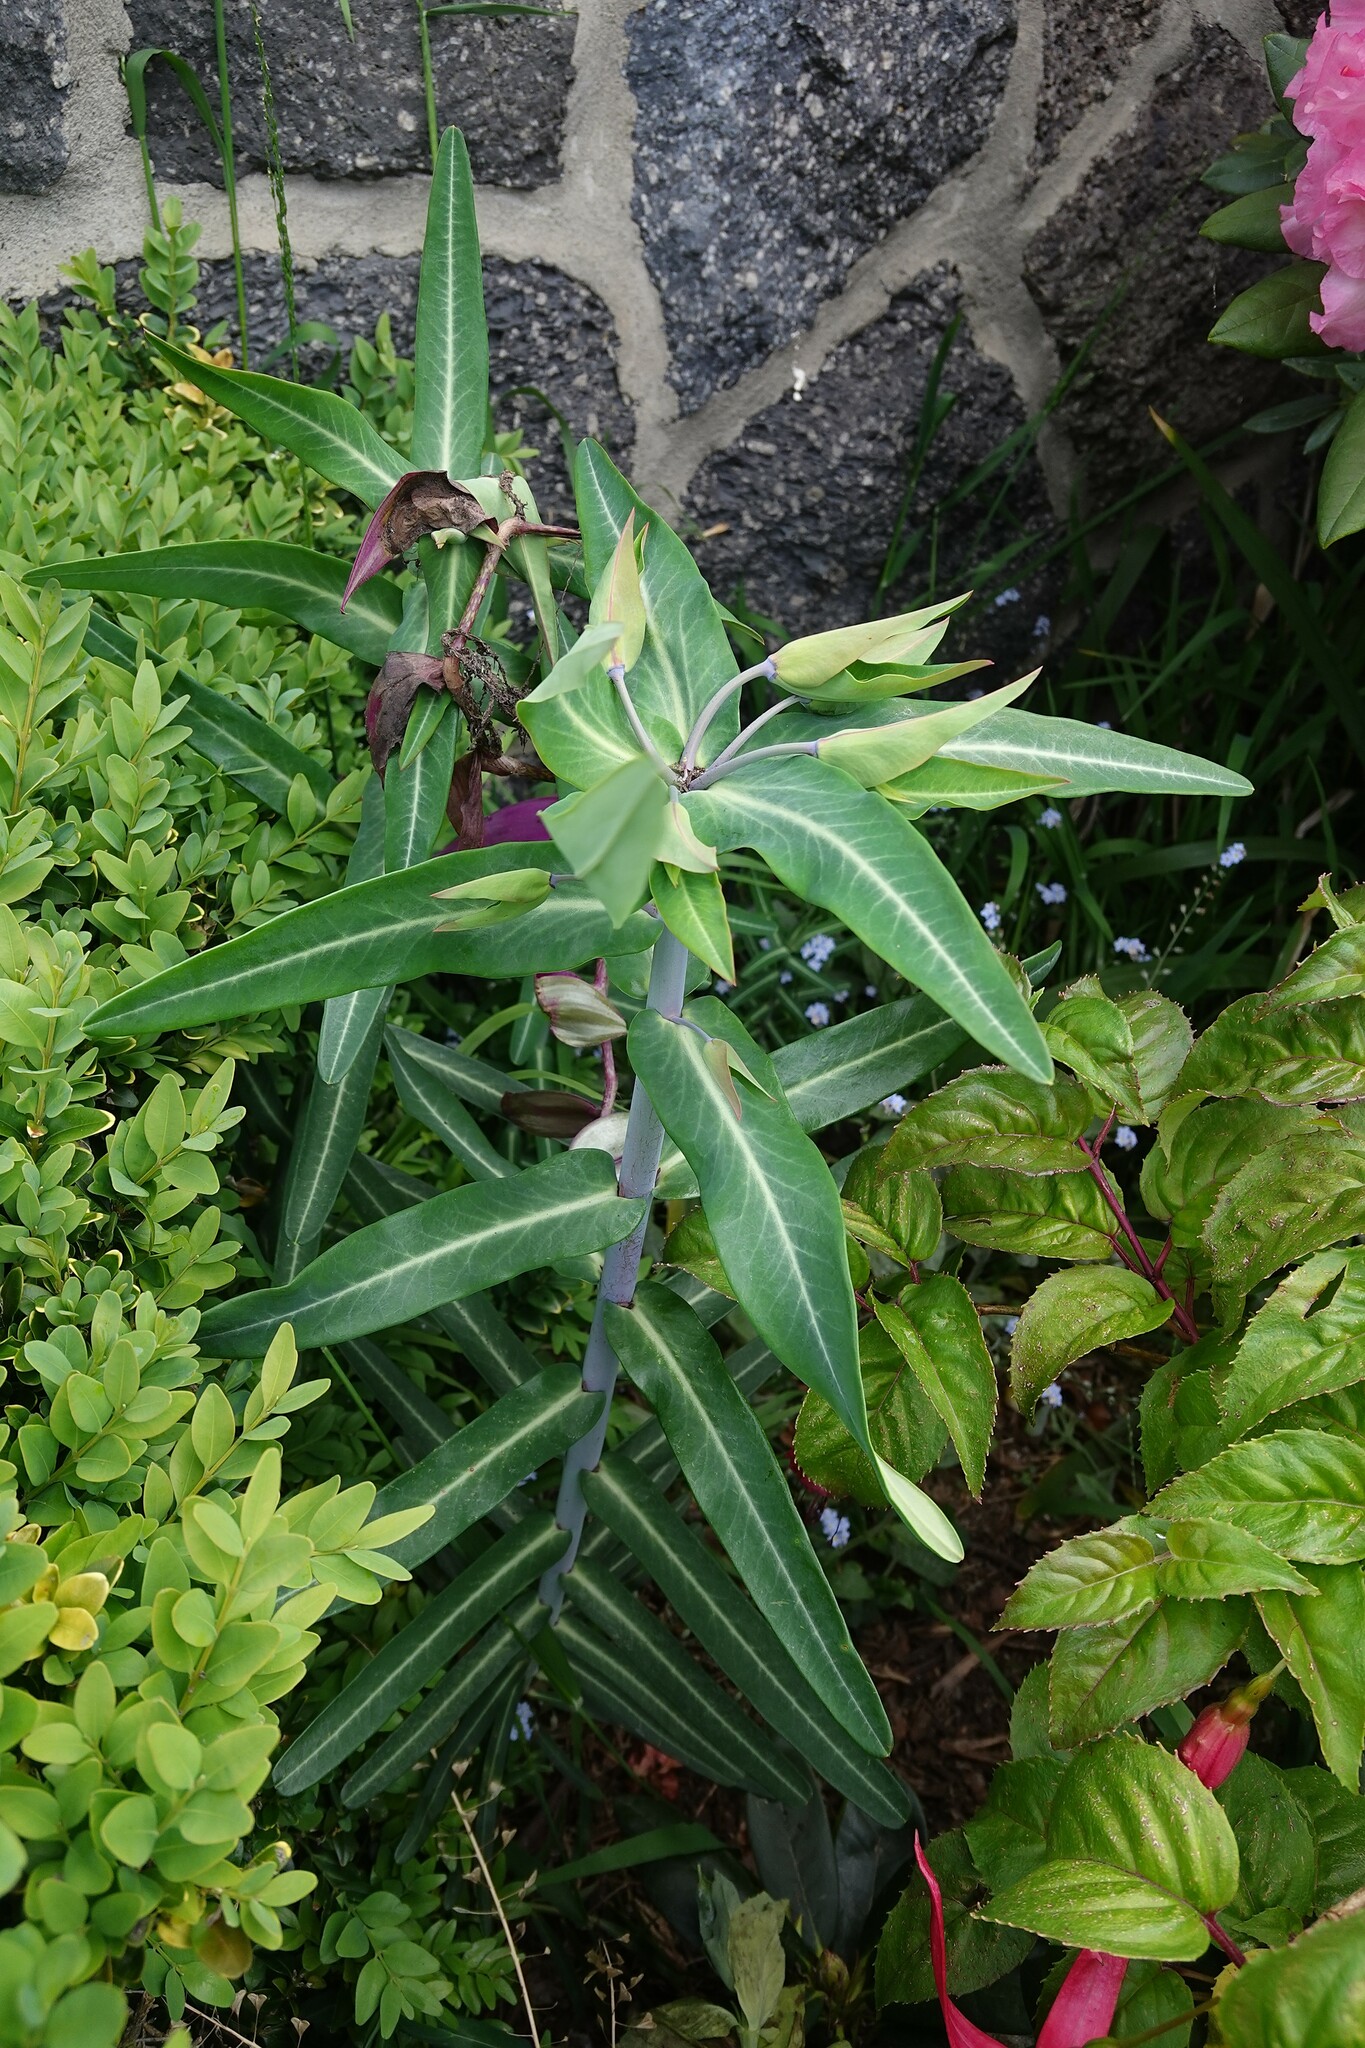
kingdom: Plantae
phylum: Tracheophyta
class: Magnoliopsida
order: Malpighiales
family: Euphorbiaceae
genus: Euphorbia
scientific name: Euphorbia lathyris
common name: Caper spurge
